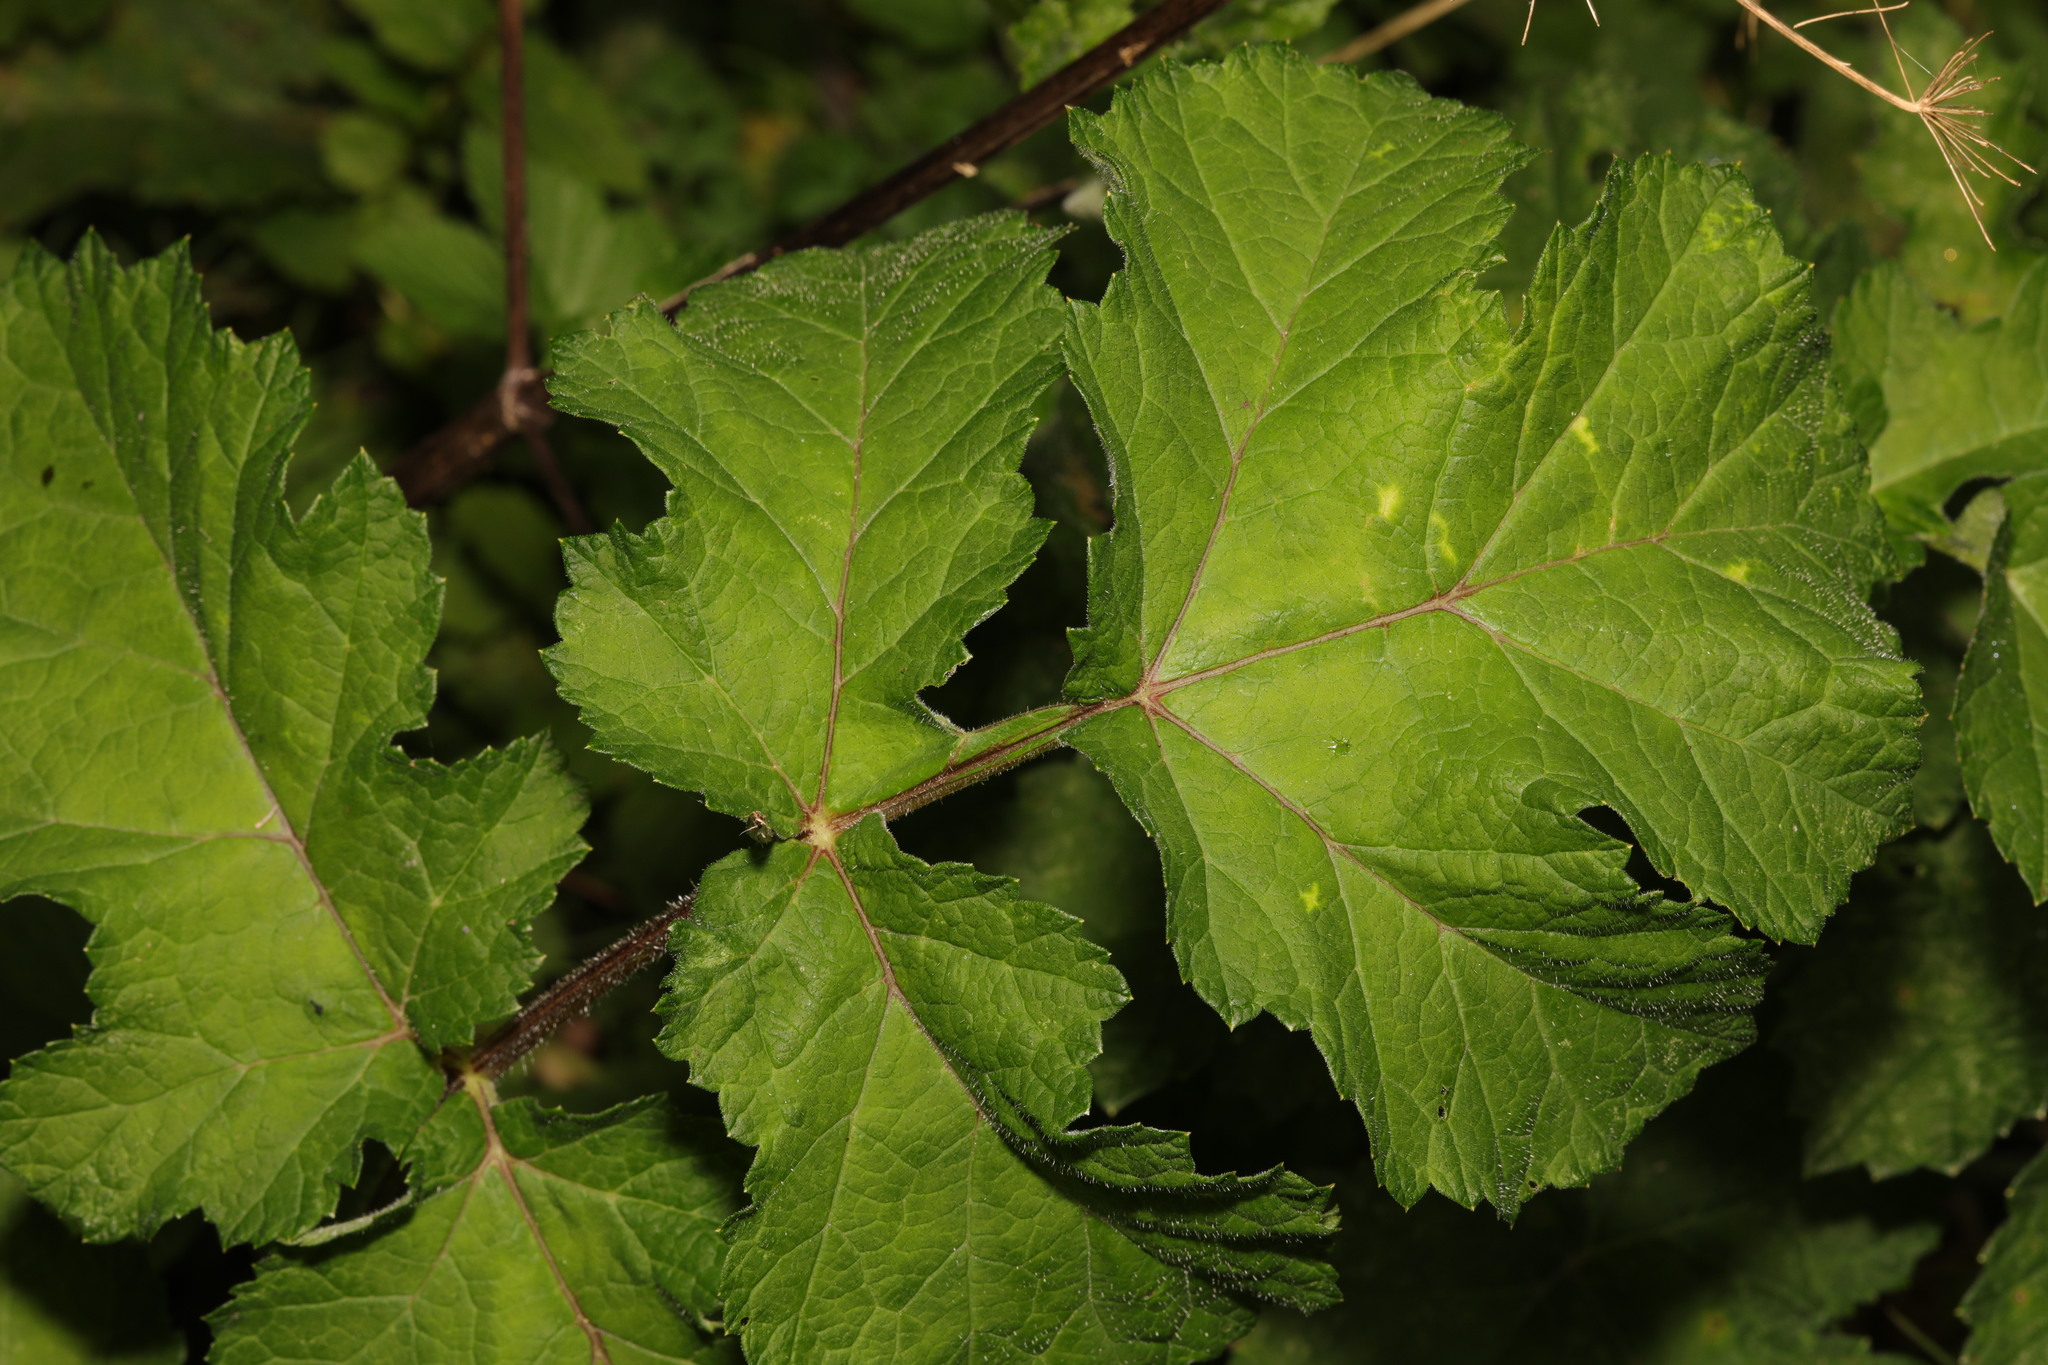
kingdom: Plantae
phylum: Tracheophyta
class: Magnoliopsida
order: Apiales
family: Apiaceae
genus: Heracleum
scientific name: Heracleum sphondylium
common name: Hogweed
